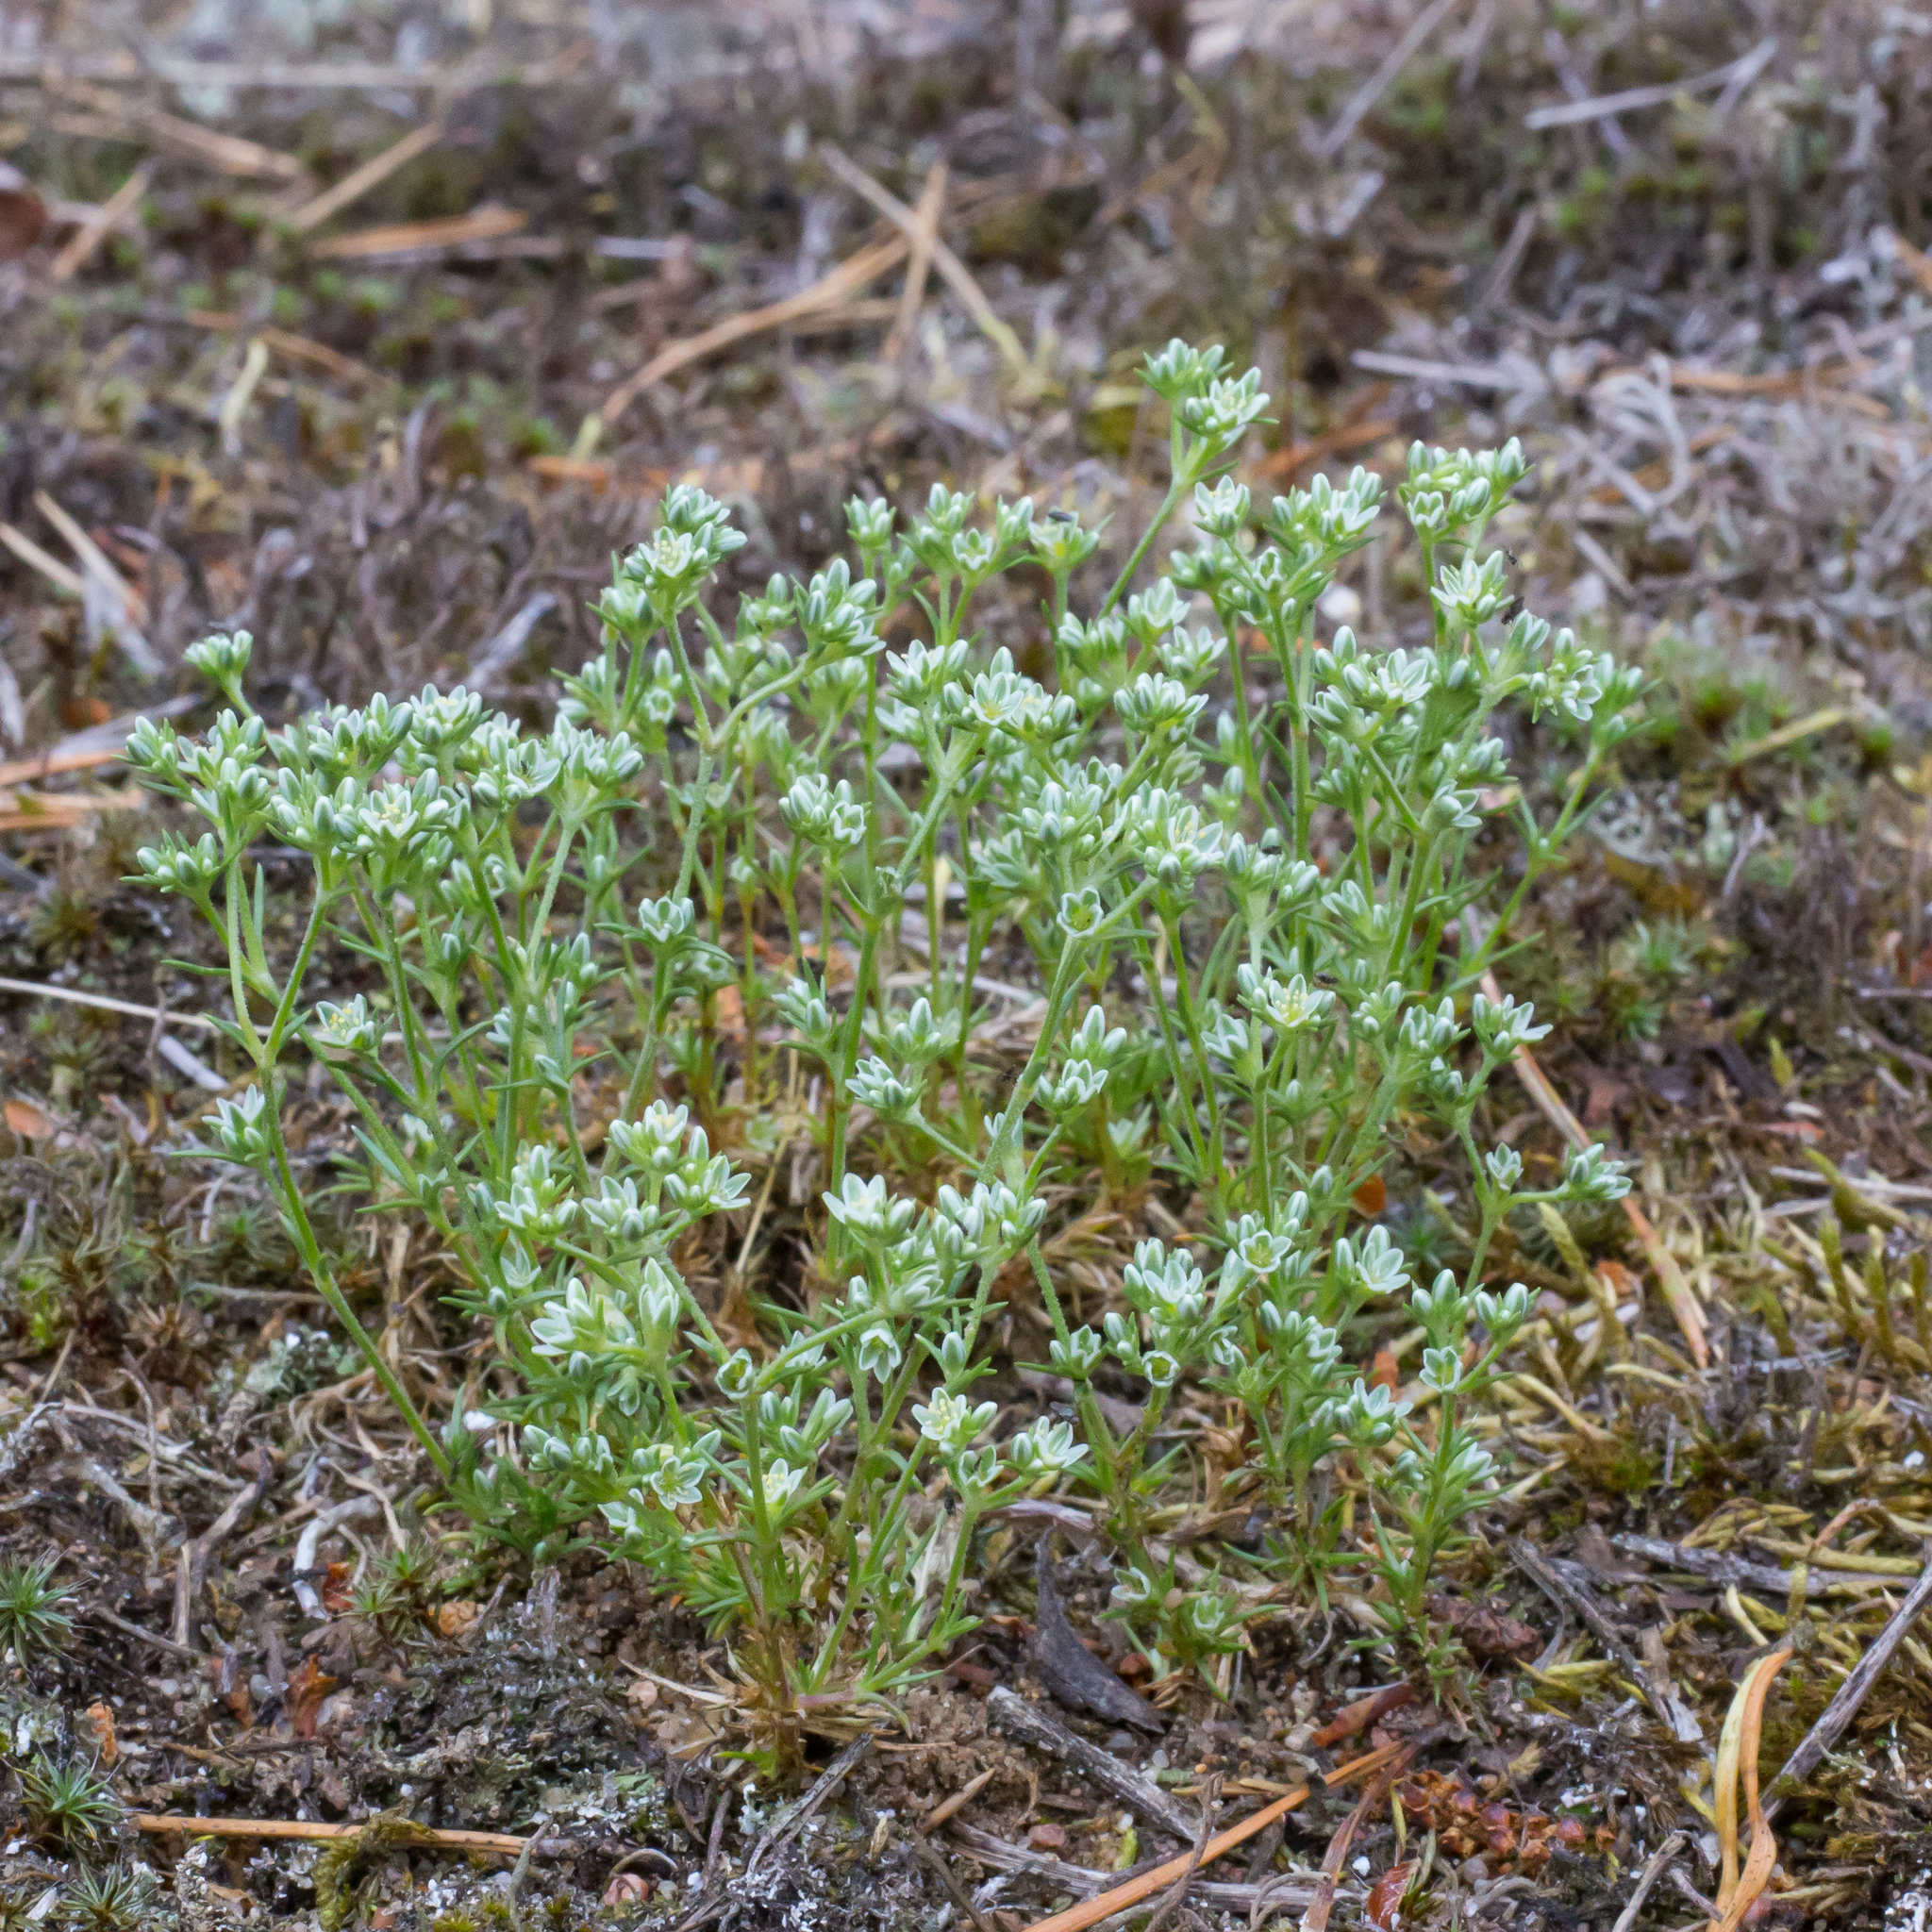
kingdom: Plantae
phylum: Tracheophyta
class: Magnoliopsida
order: Caryophyllales
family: Caryophyllaceae
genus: Scleranthus
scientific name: Scleranthus perennis
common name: Perennial knawel
